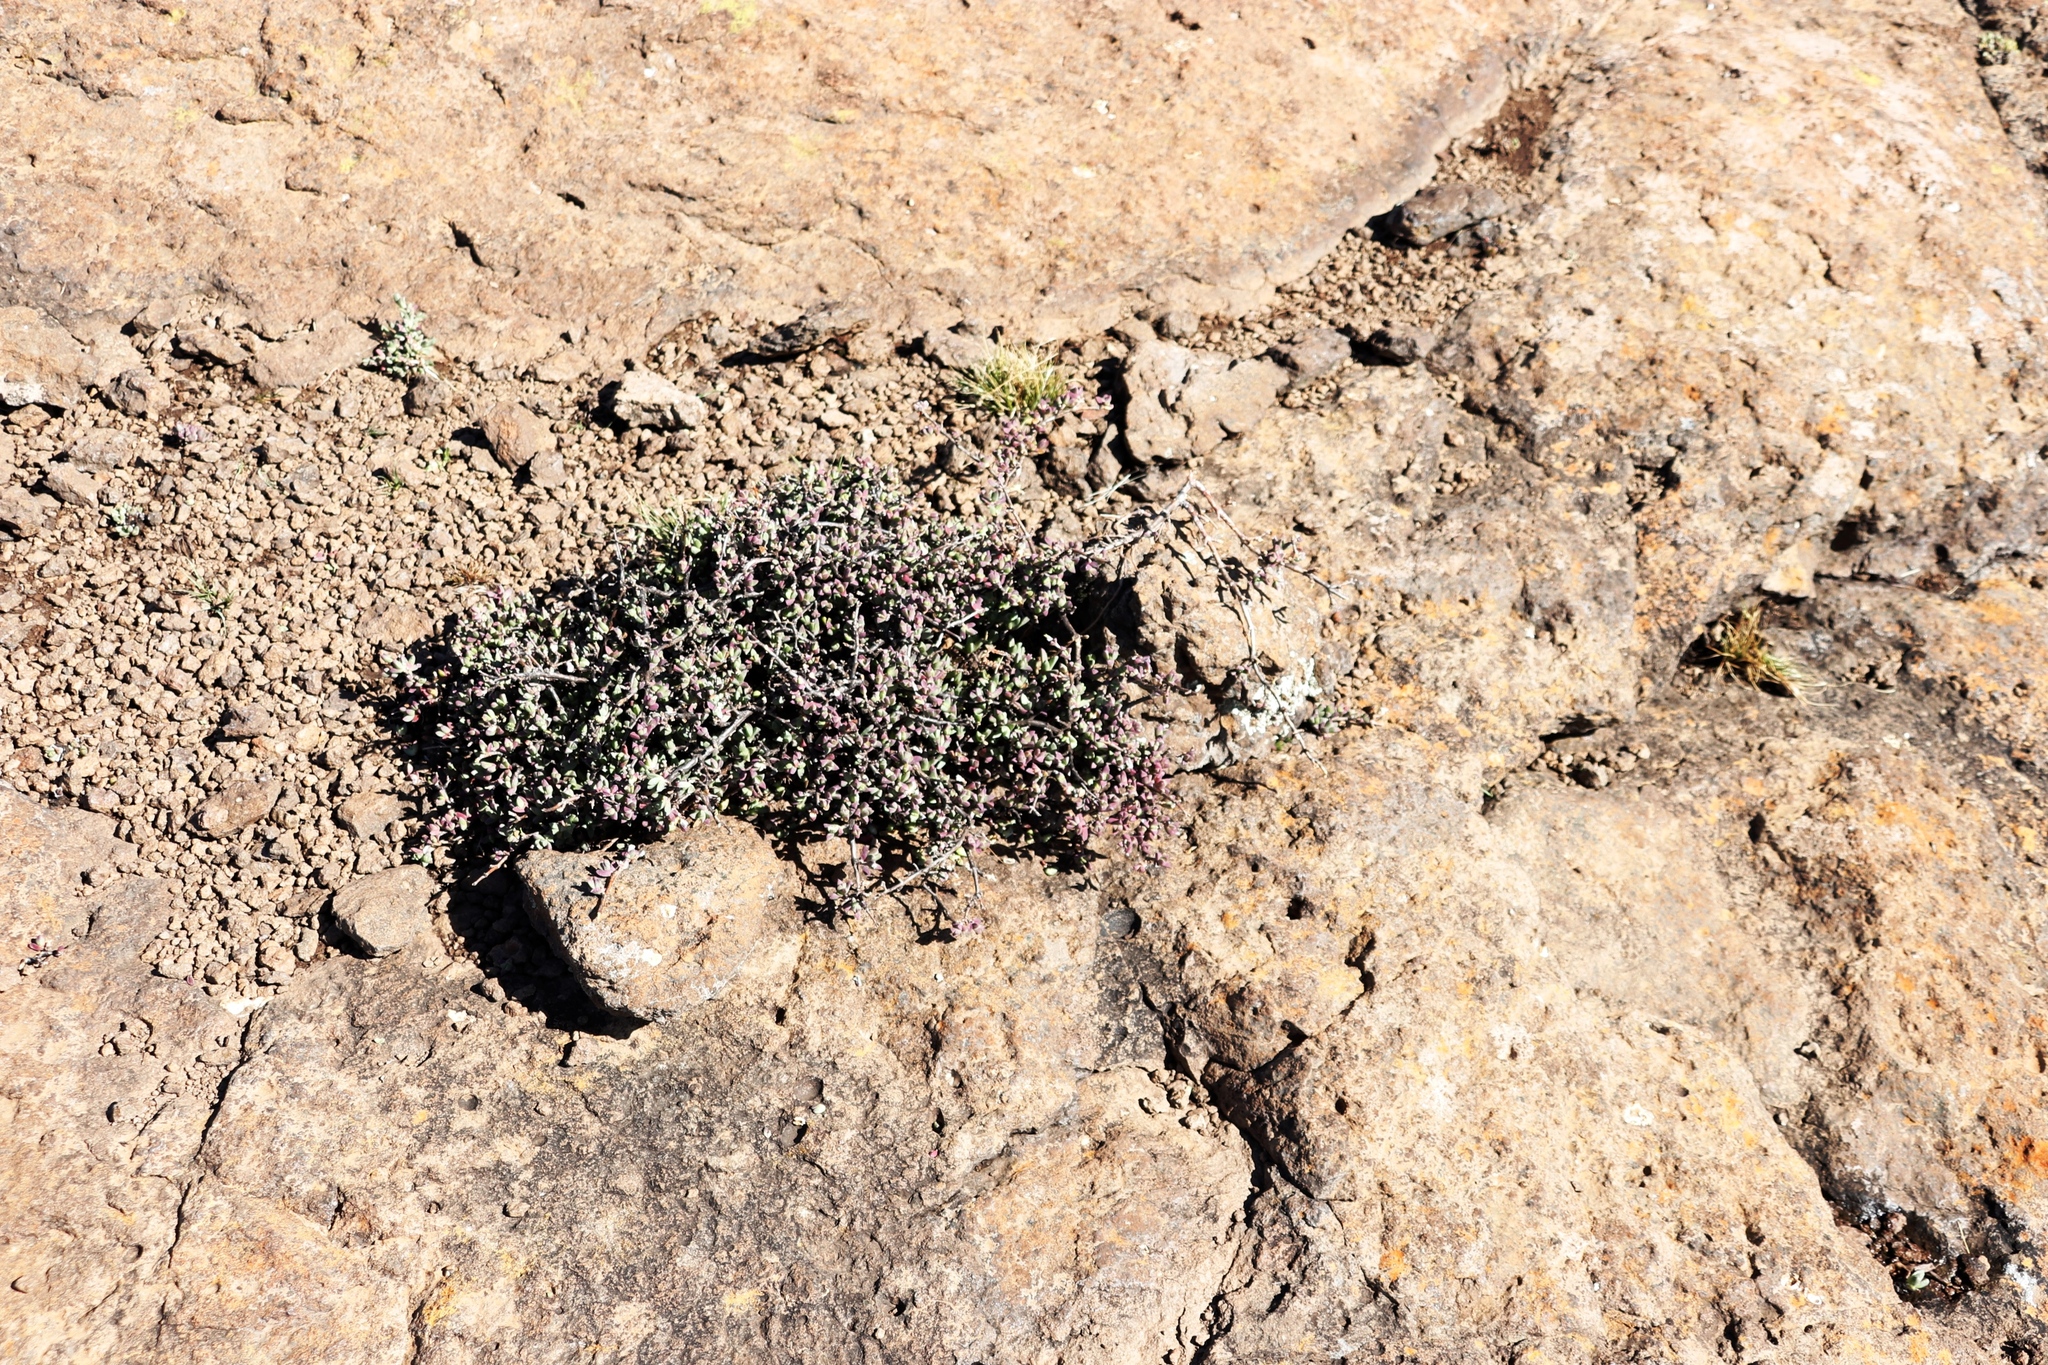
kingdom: Plantae
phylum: Tracheophyta
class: Magnoliopsida
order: Caryophyllales
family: Aizoaceae
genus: Ruschia
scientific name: Ruschia putterillii
